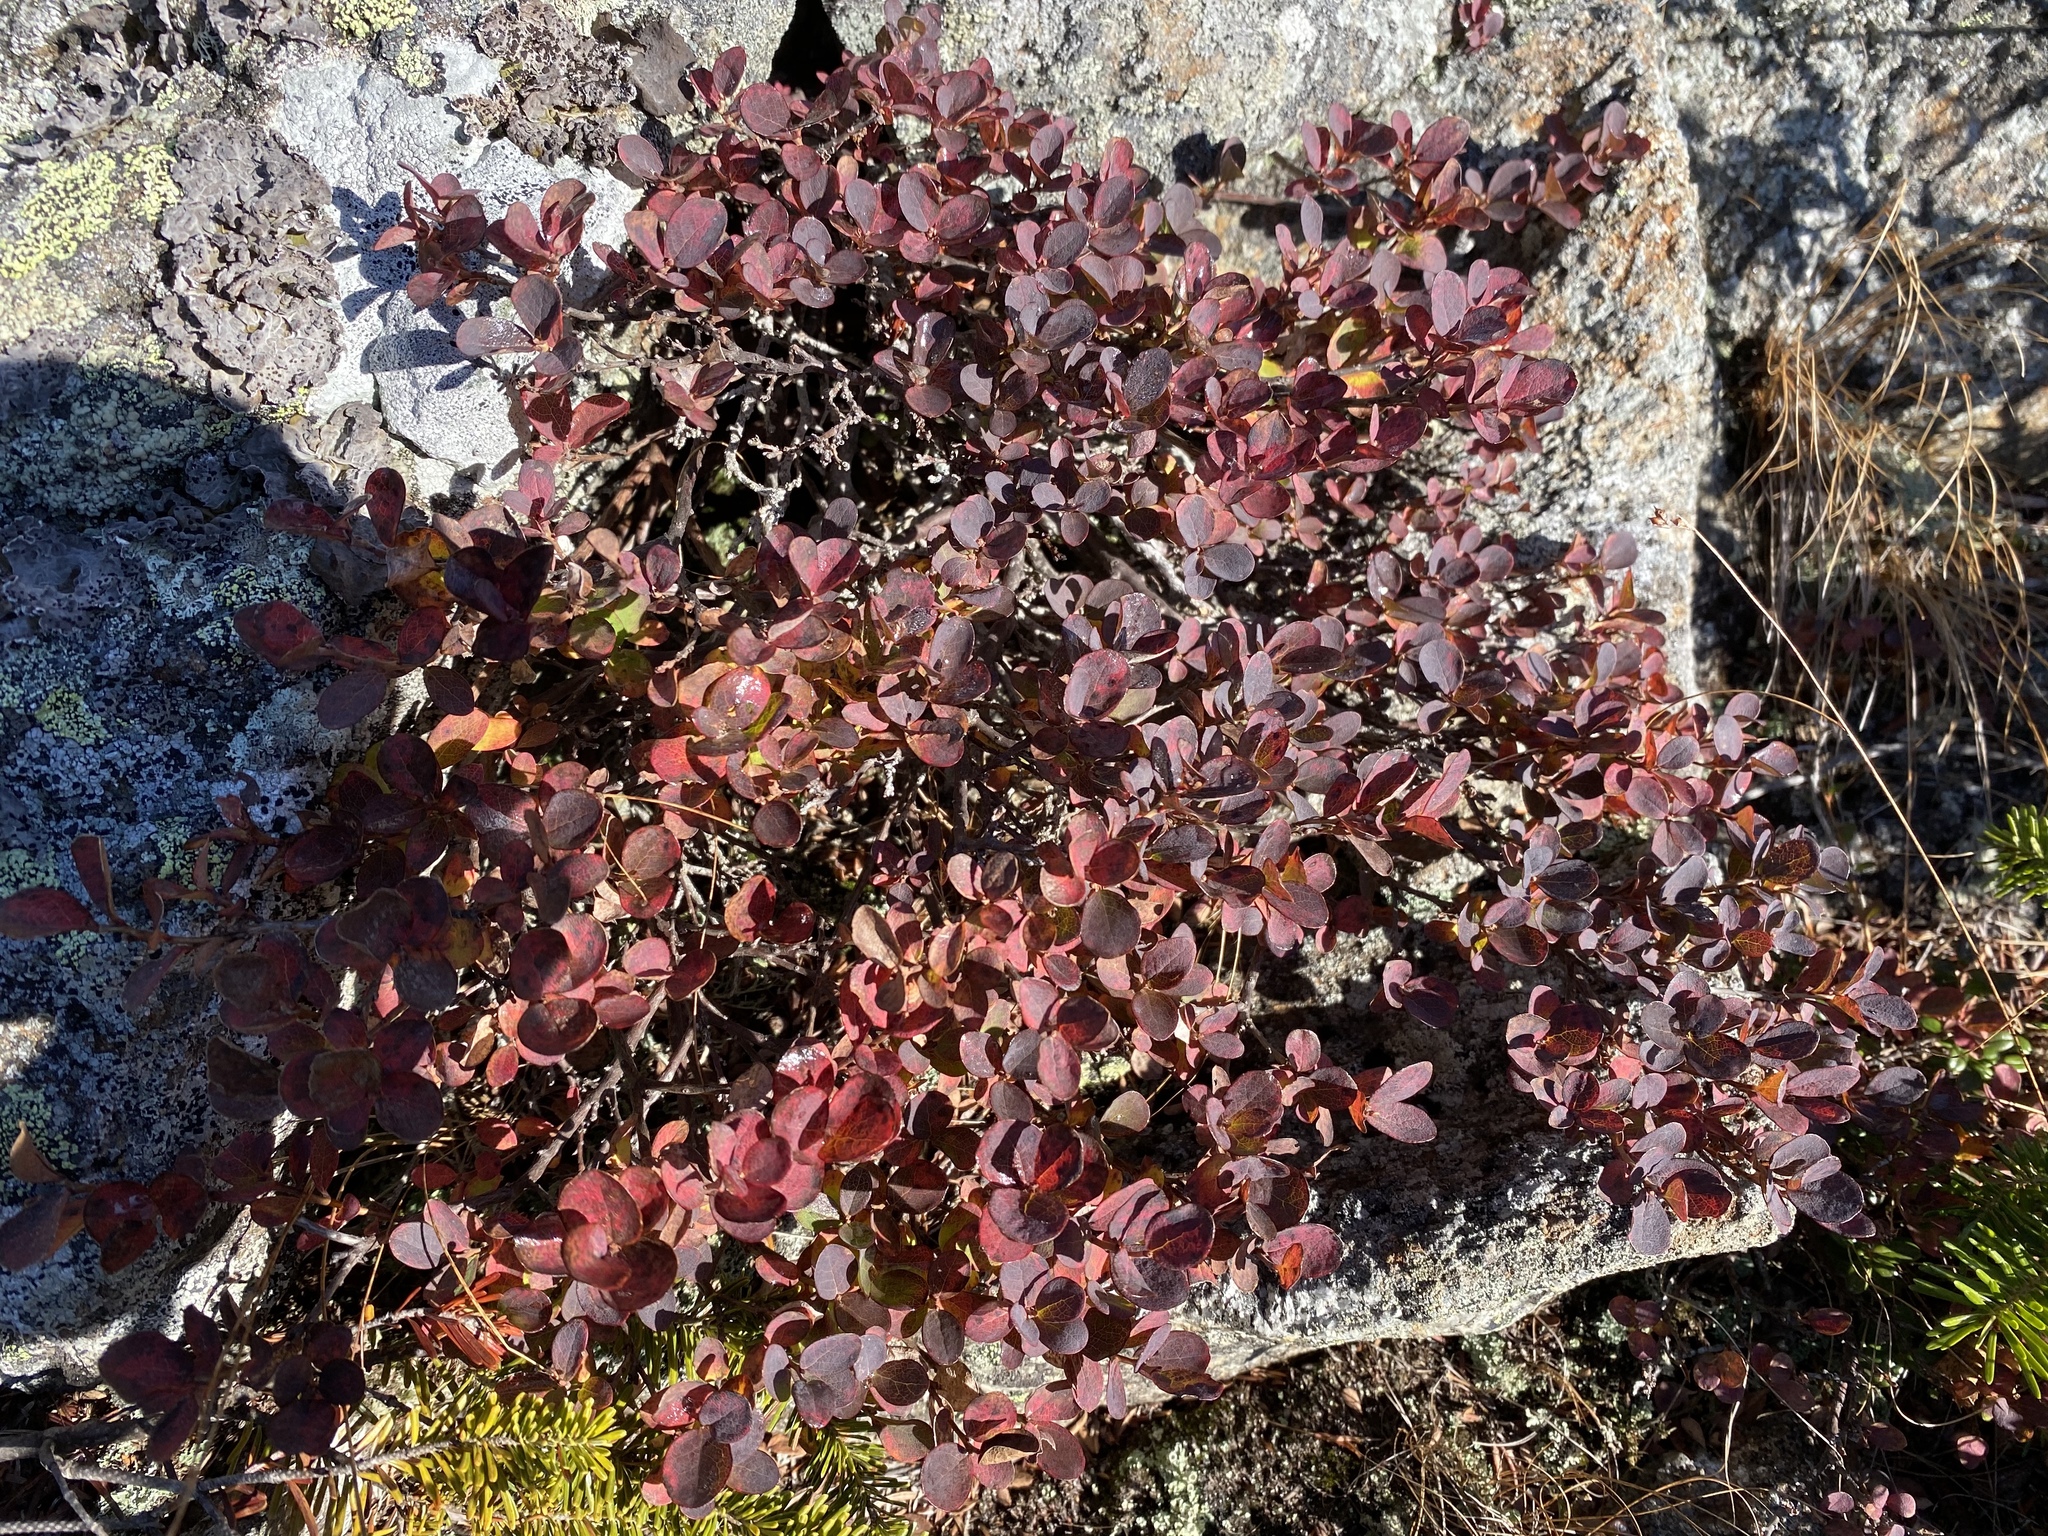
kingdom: Plantae
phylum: Tracheophyta
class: Magnoliopsida
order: Ericales
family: Ericaceae
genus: Vaccinium
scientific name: Vaccinium uliginosum
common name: Bog bilberry
